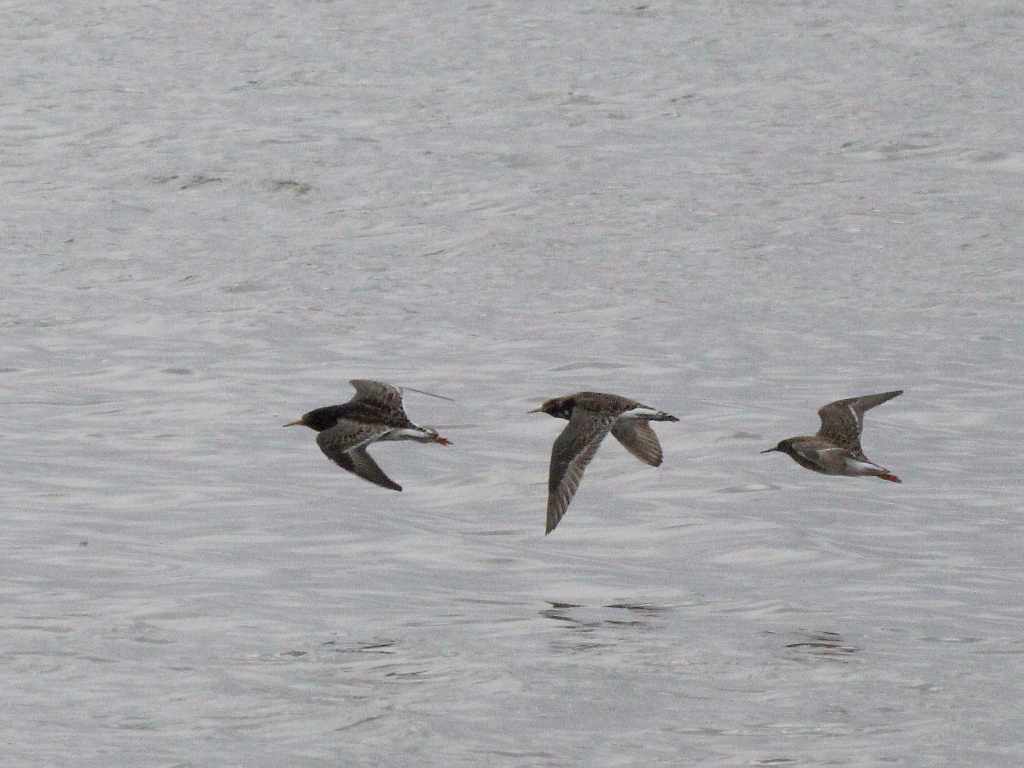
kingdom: Animalia
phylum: Chordata
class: Aves
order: Charadriiformes
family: Scolopacidae
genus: Calidris
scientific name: Calidris pugnax
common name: Ruff
